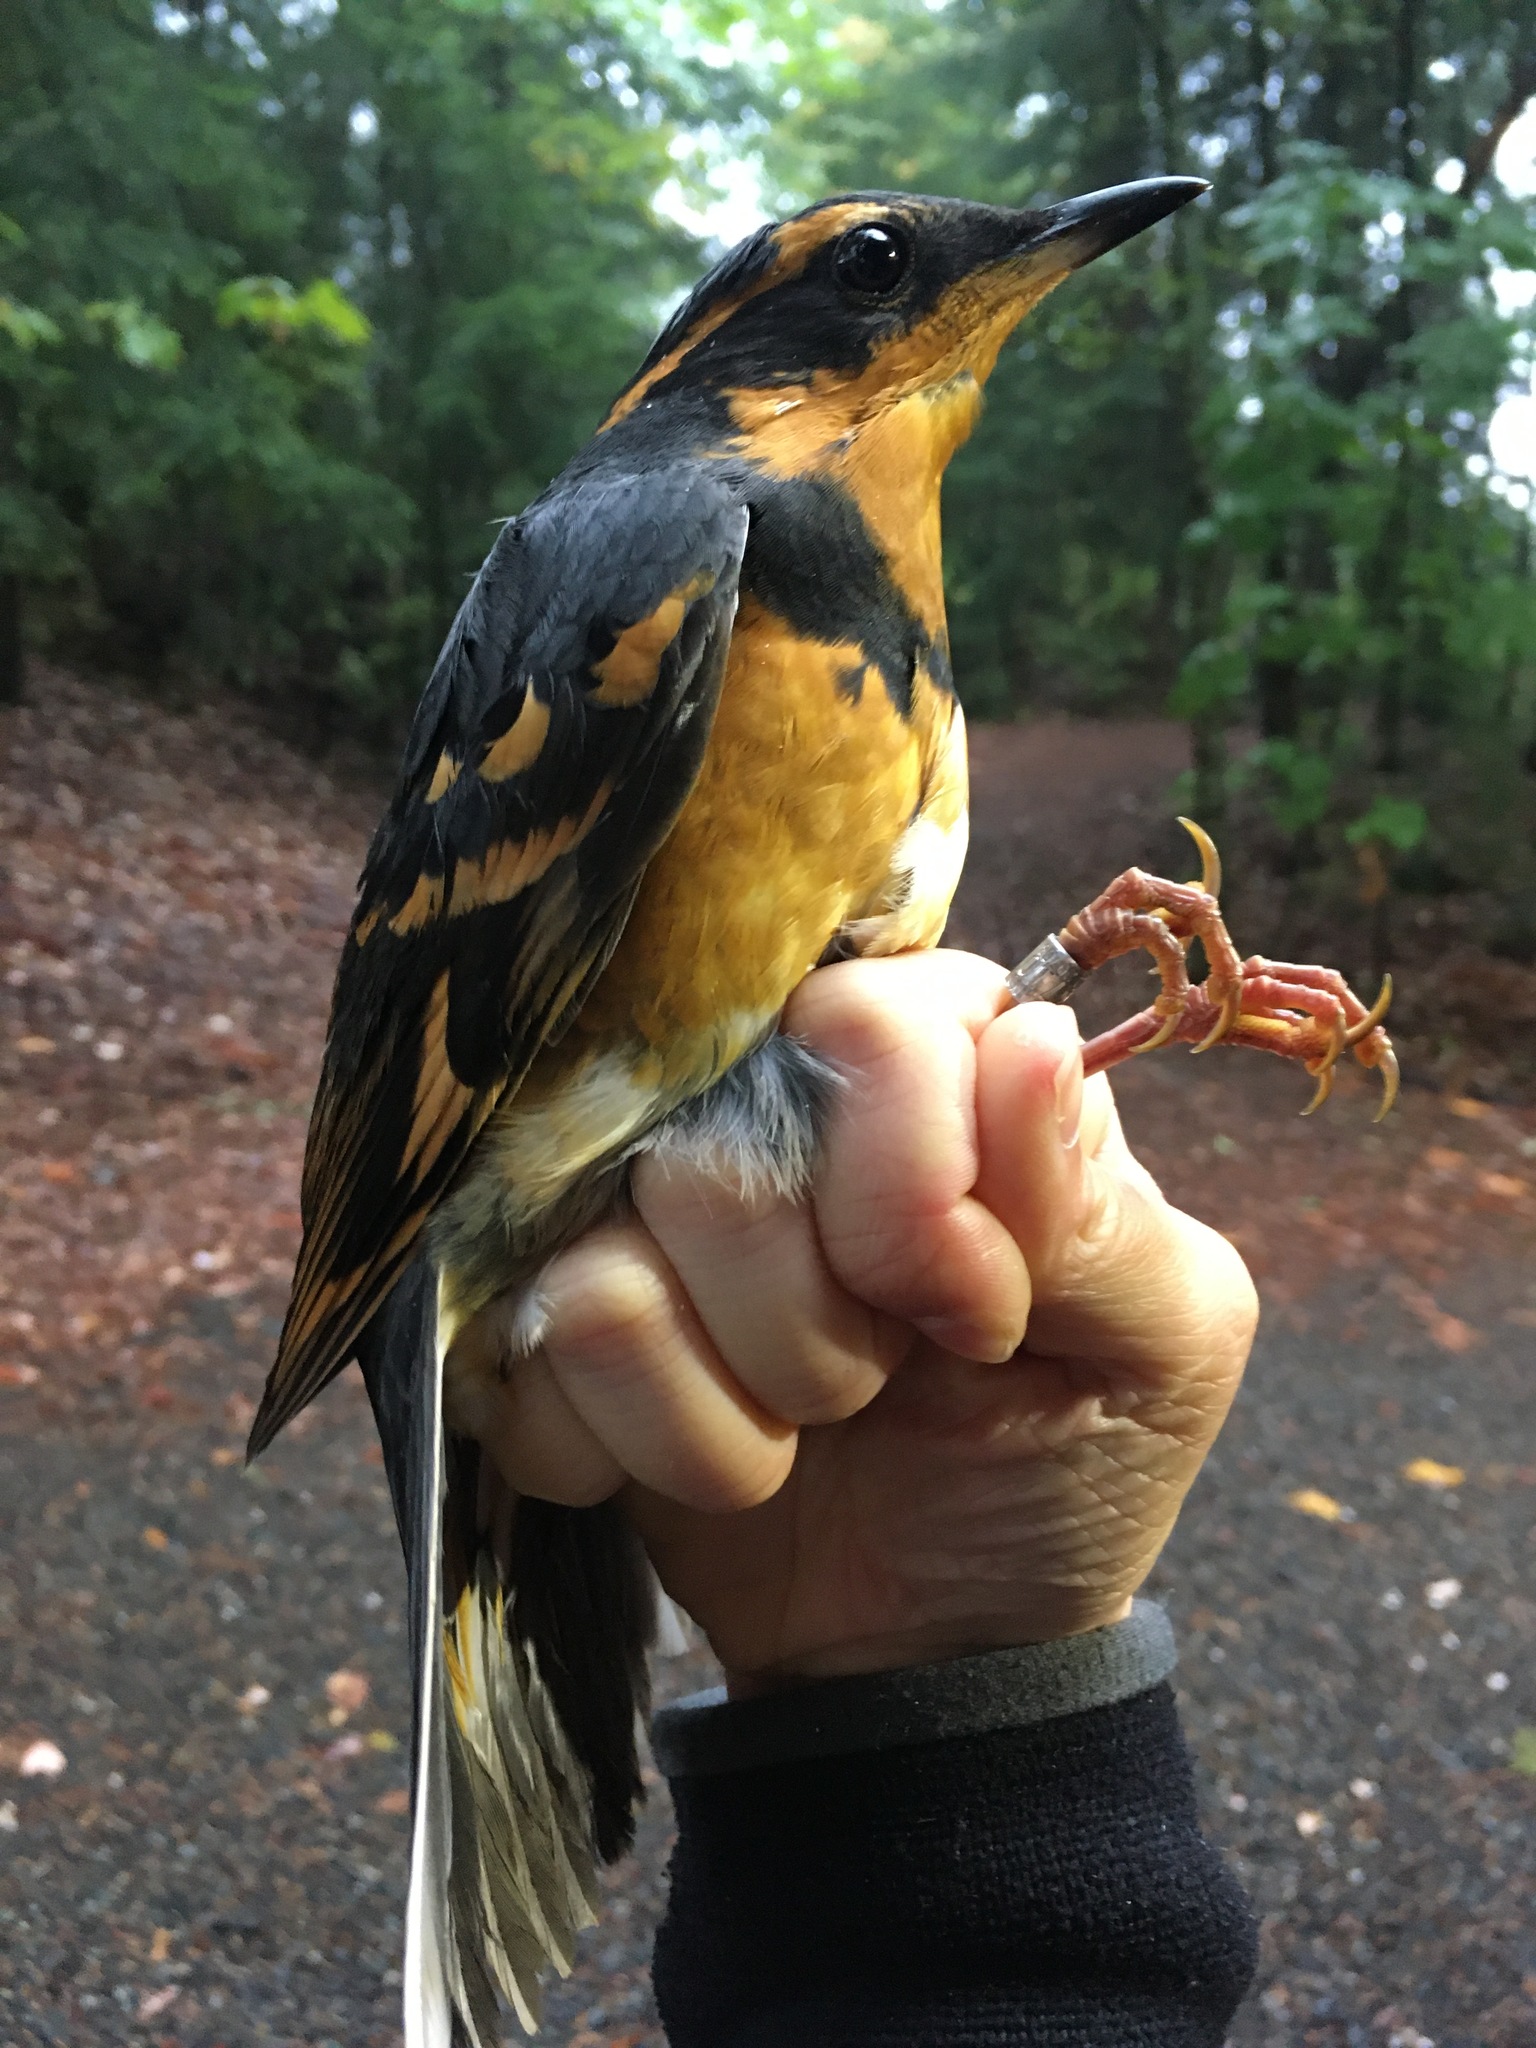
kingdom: Animalia
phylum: Chordata
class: Aves
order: Passeriformes
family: Turdidae
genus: Ixoreus
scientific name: Ixoreus naevius
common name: Varied thrush
